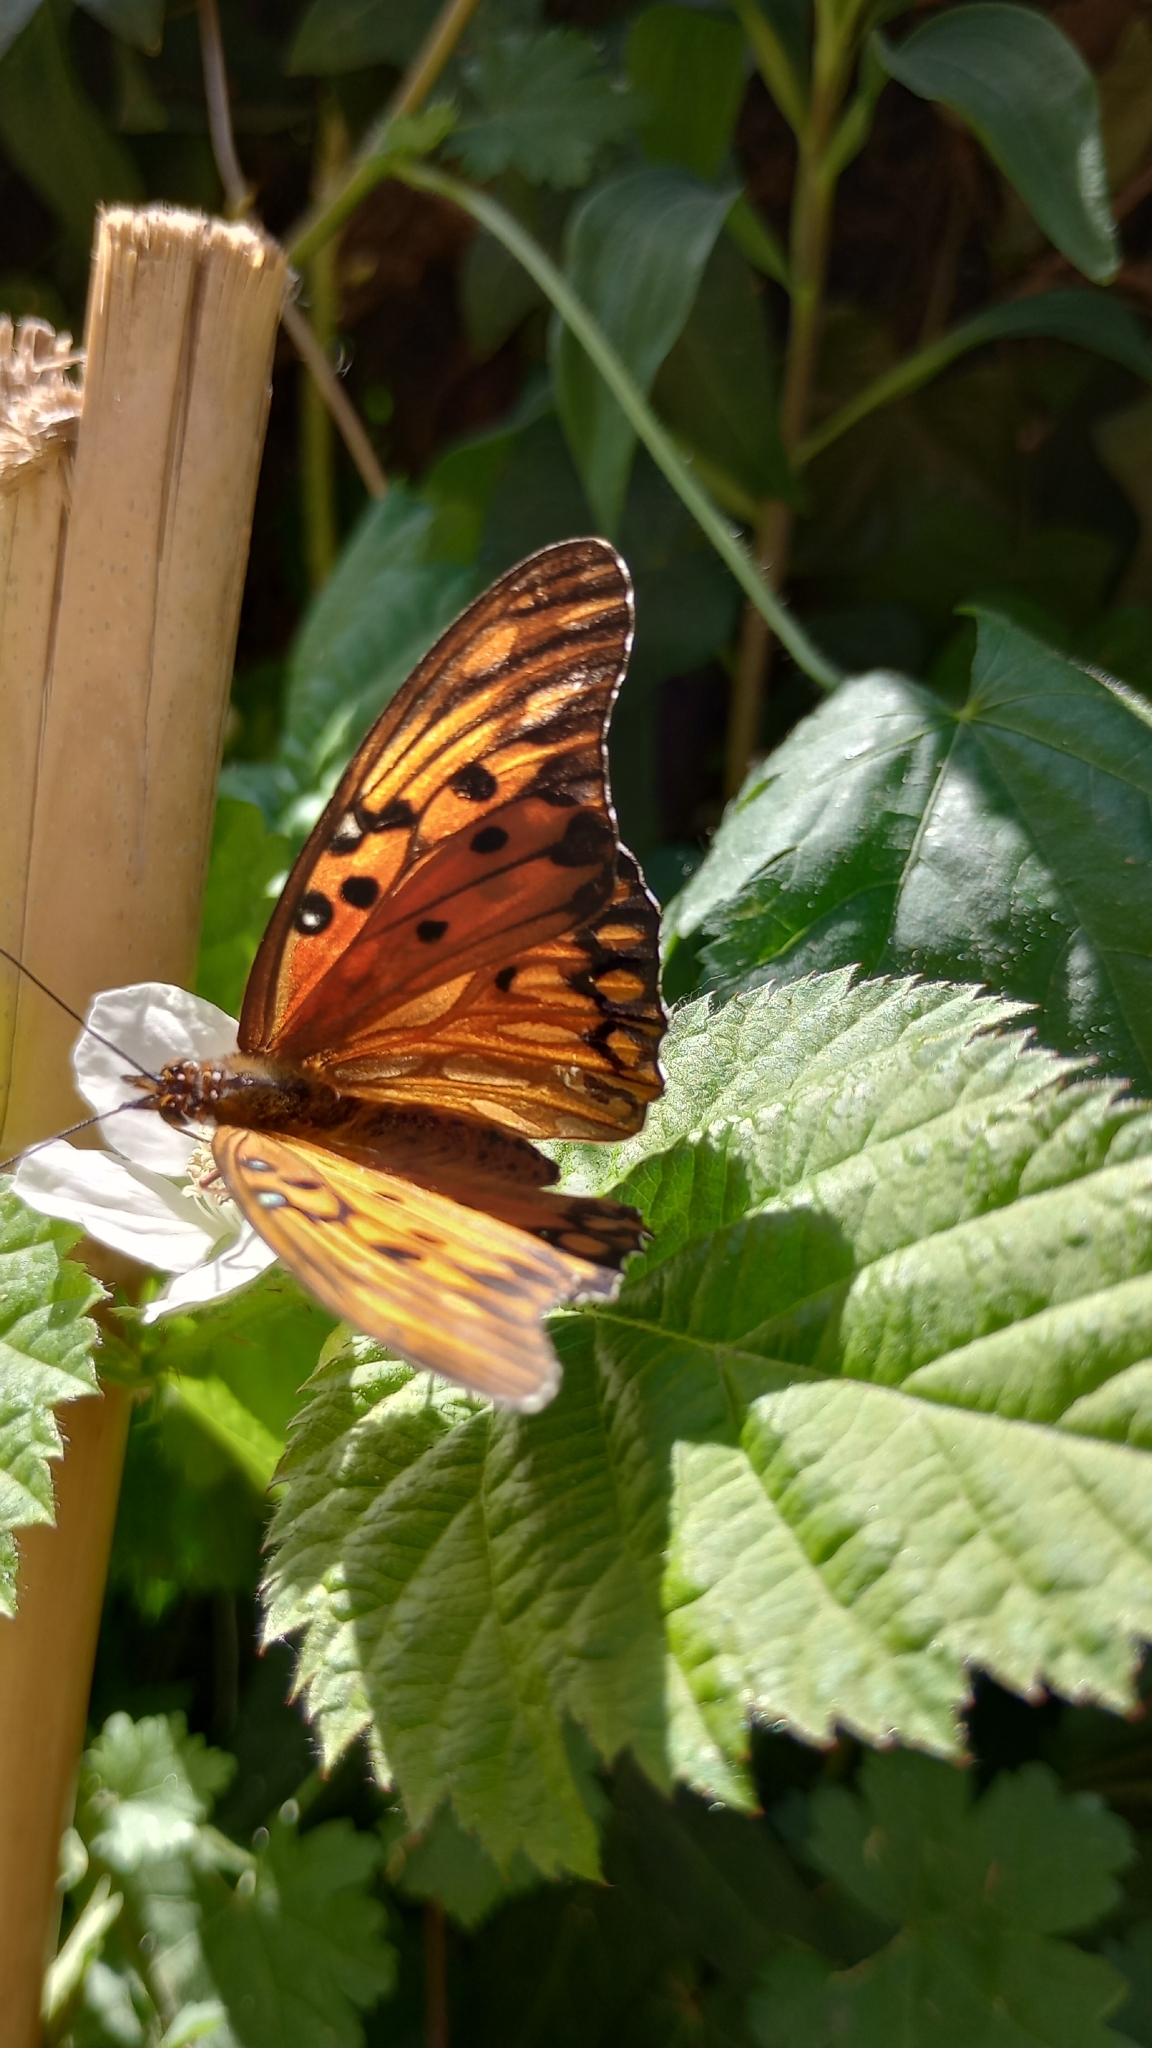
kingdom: Animalia
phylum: Arthropoda
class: Insecta
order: Lepidoptera
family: Nymphalidae
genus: Dione
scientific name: Dione vanillae
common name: Gulf fritillary
